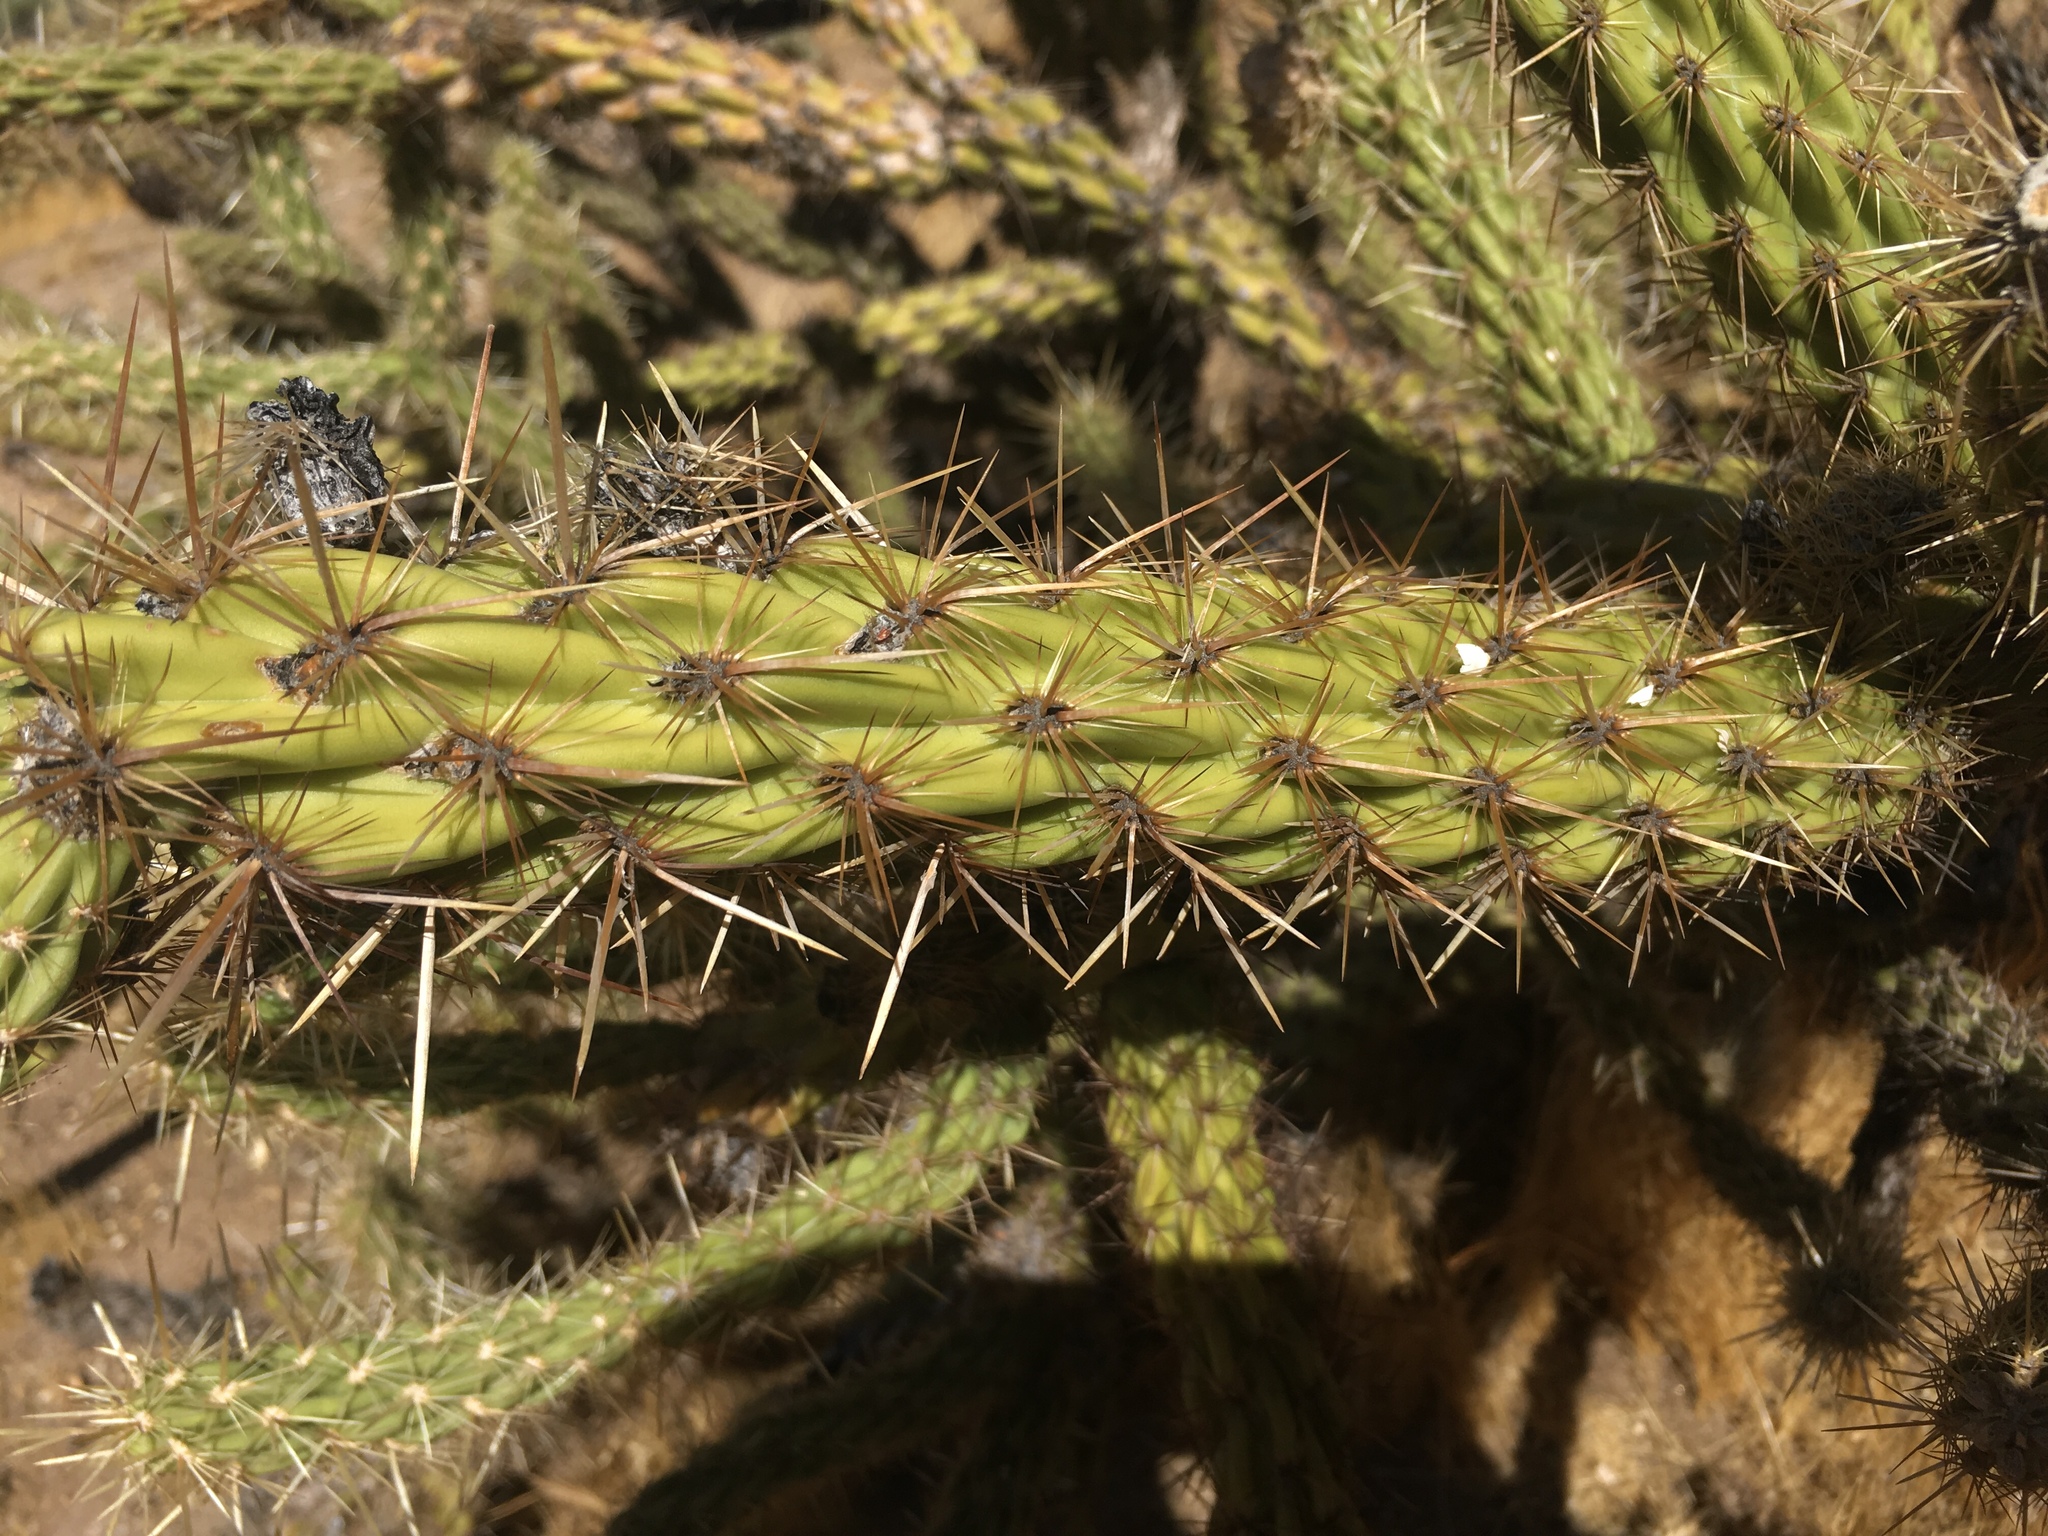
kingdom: Plantae
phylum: Tracheophyta
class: Magnoliopsida
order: Caryophyllales
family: Cactaceae
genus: Cylindropuntia
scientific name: Cylindropuntia ganderi
